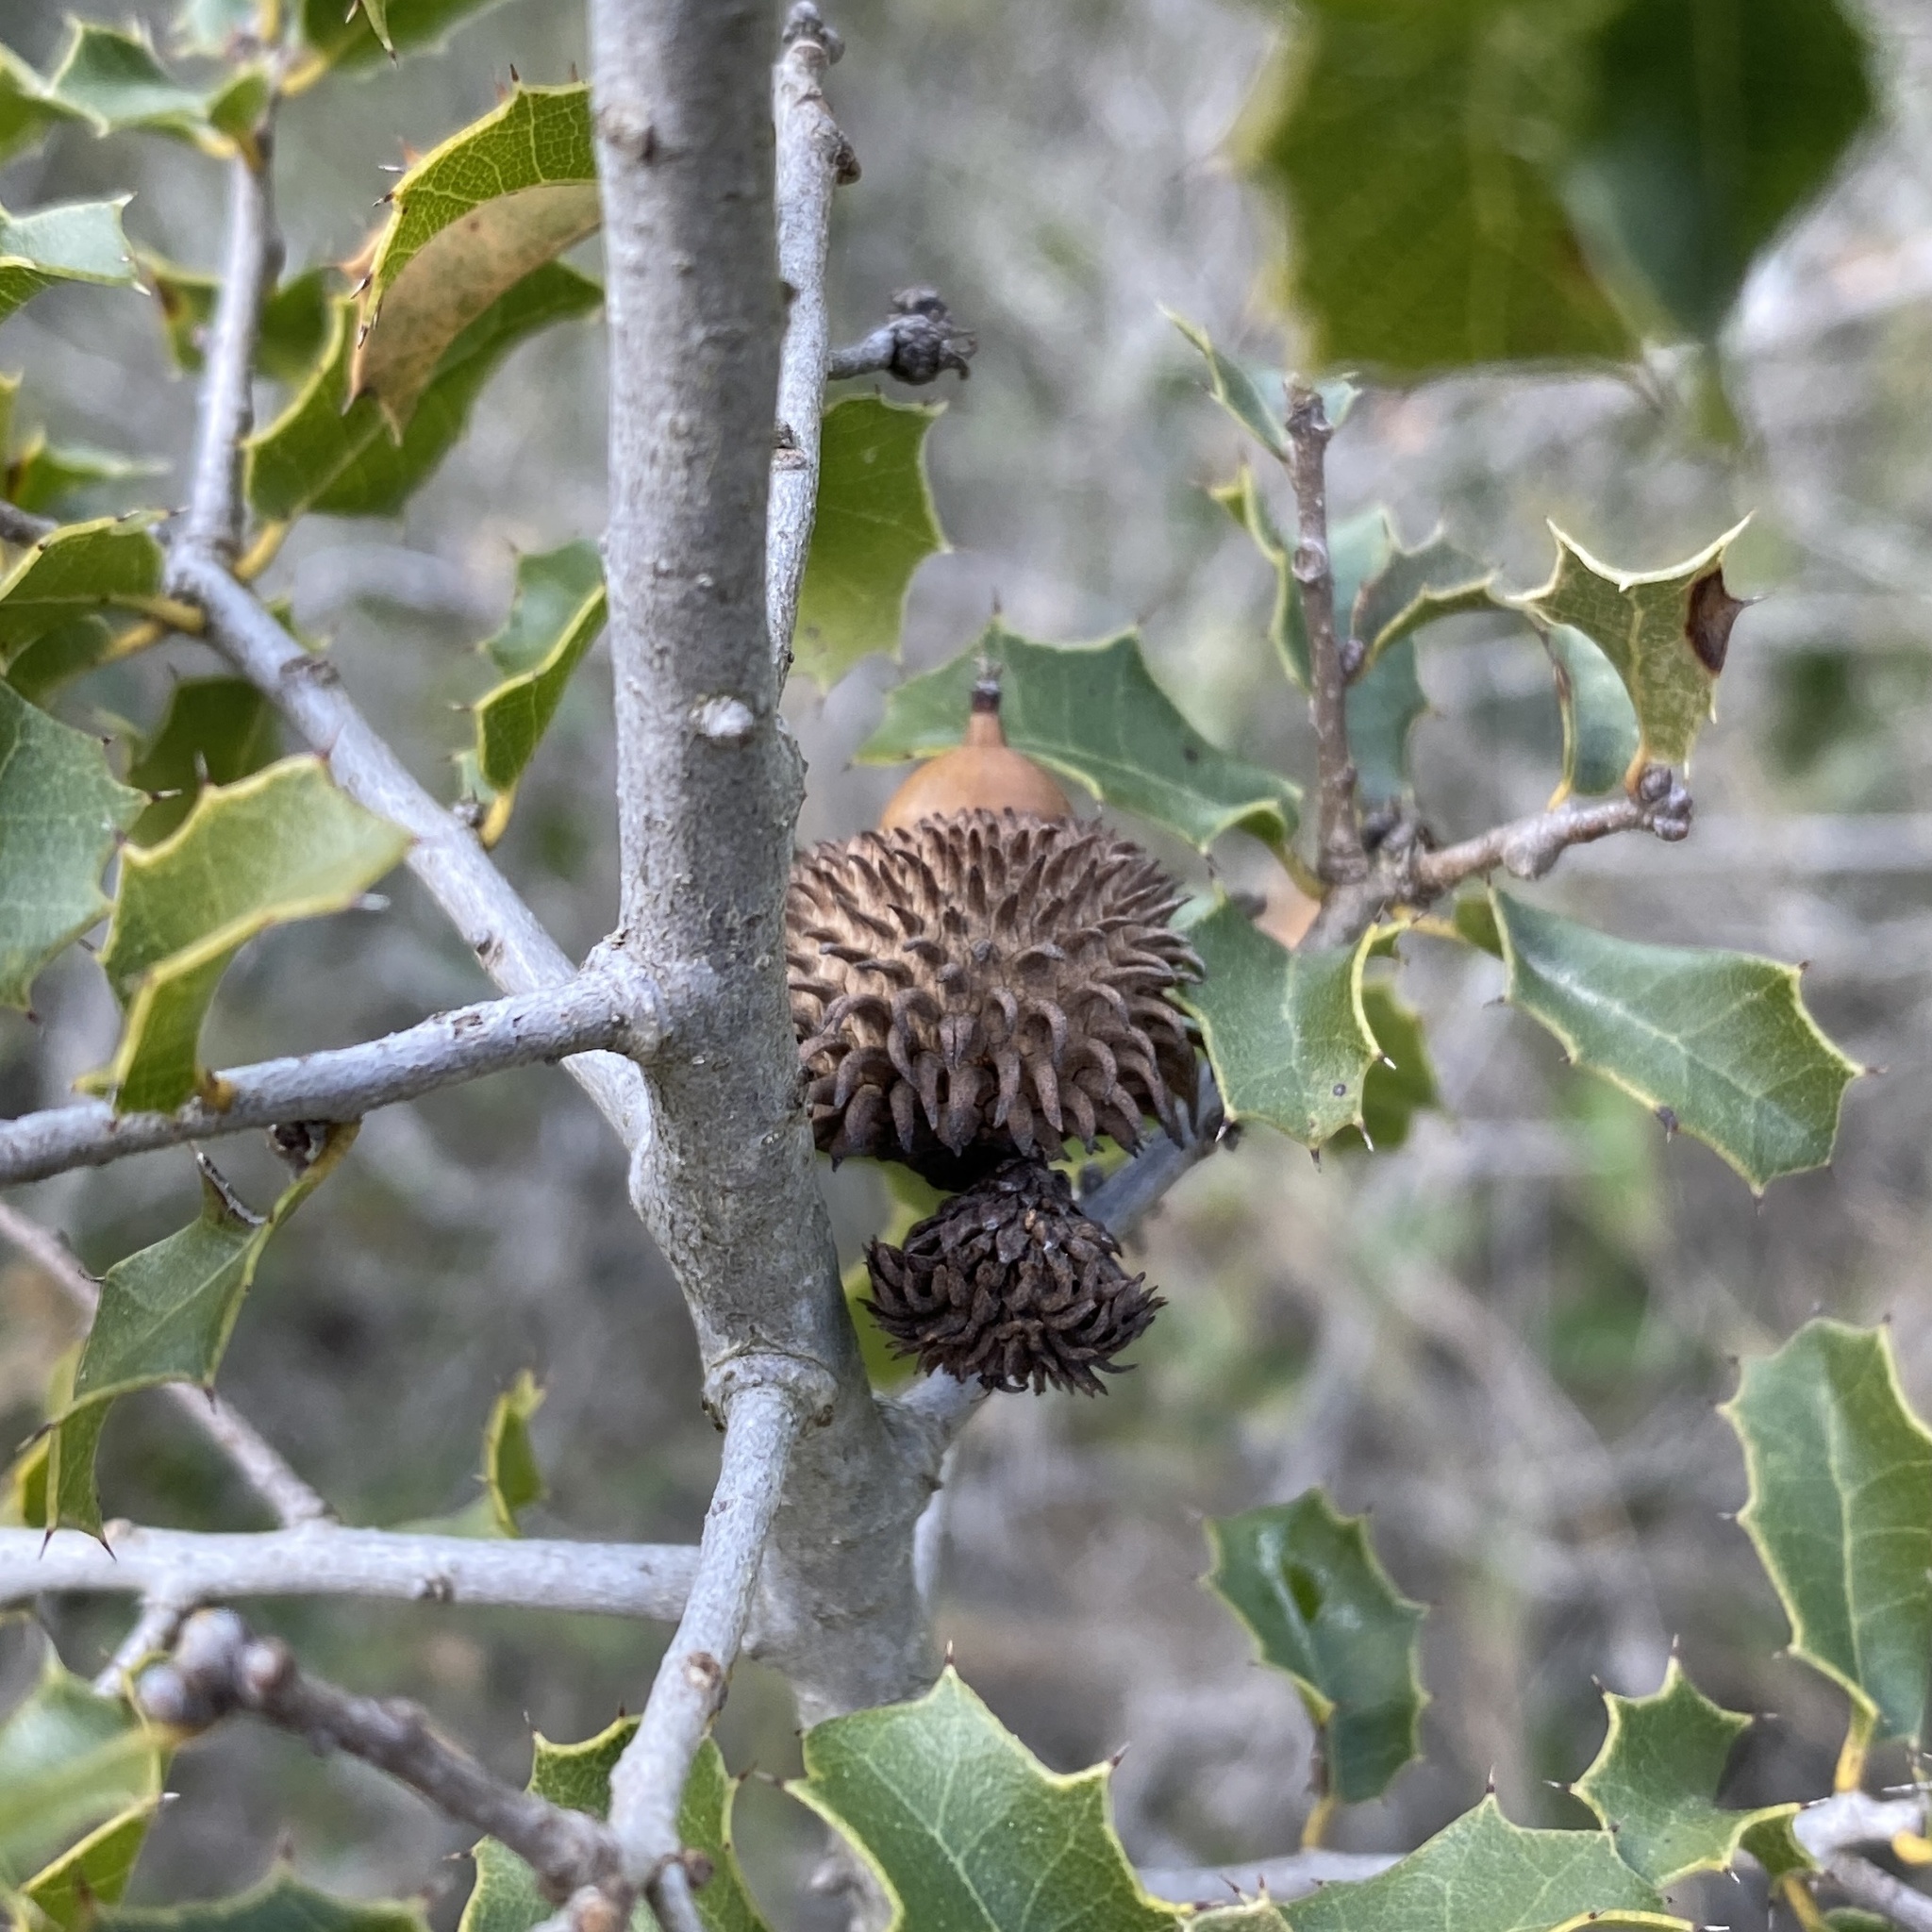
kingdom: Plantae
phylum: Tracheophyta
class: Magnoliopsida
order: Fagales
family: Fagaceae
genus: Quercus
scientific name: Quercus coccifera
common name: Kermes oak
